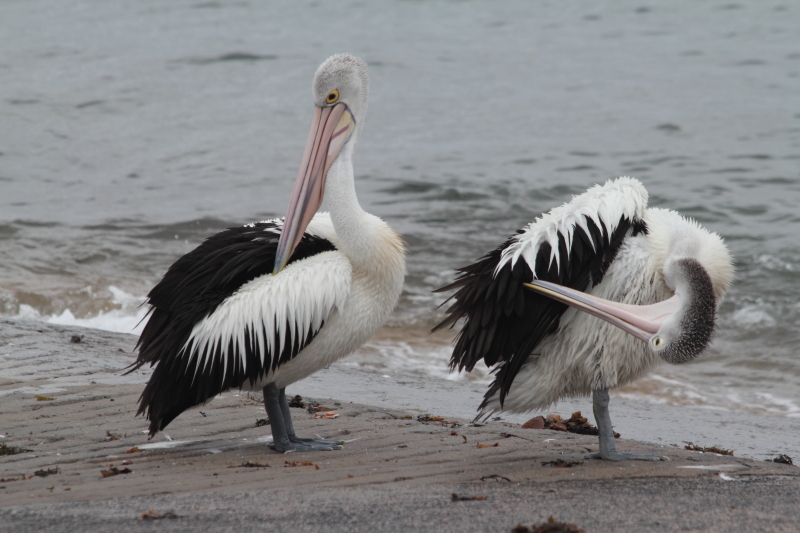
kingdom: Animalia
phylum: Chordata
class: Aves
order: Pelecaniformes
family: Pelecanidae
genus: Pelecanus
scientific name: Pelecanus conspicillatus
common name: Australian pelican
